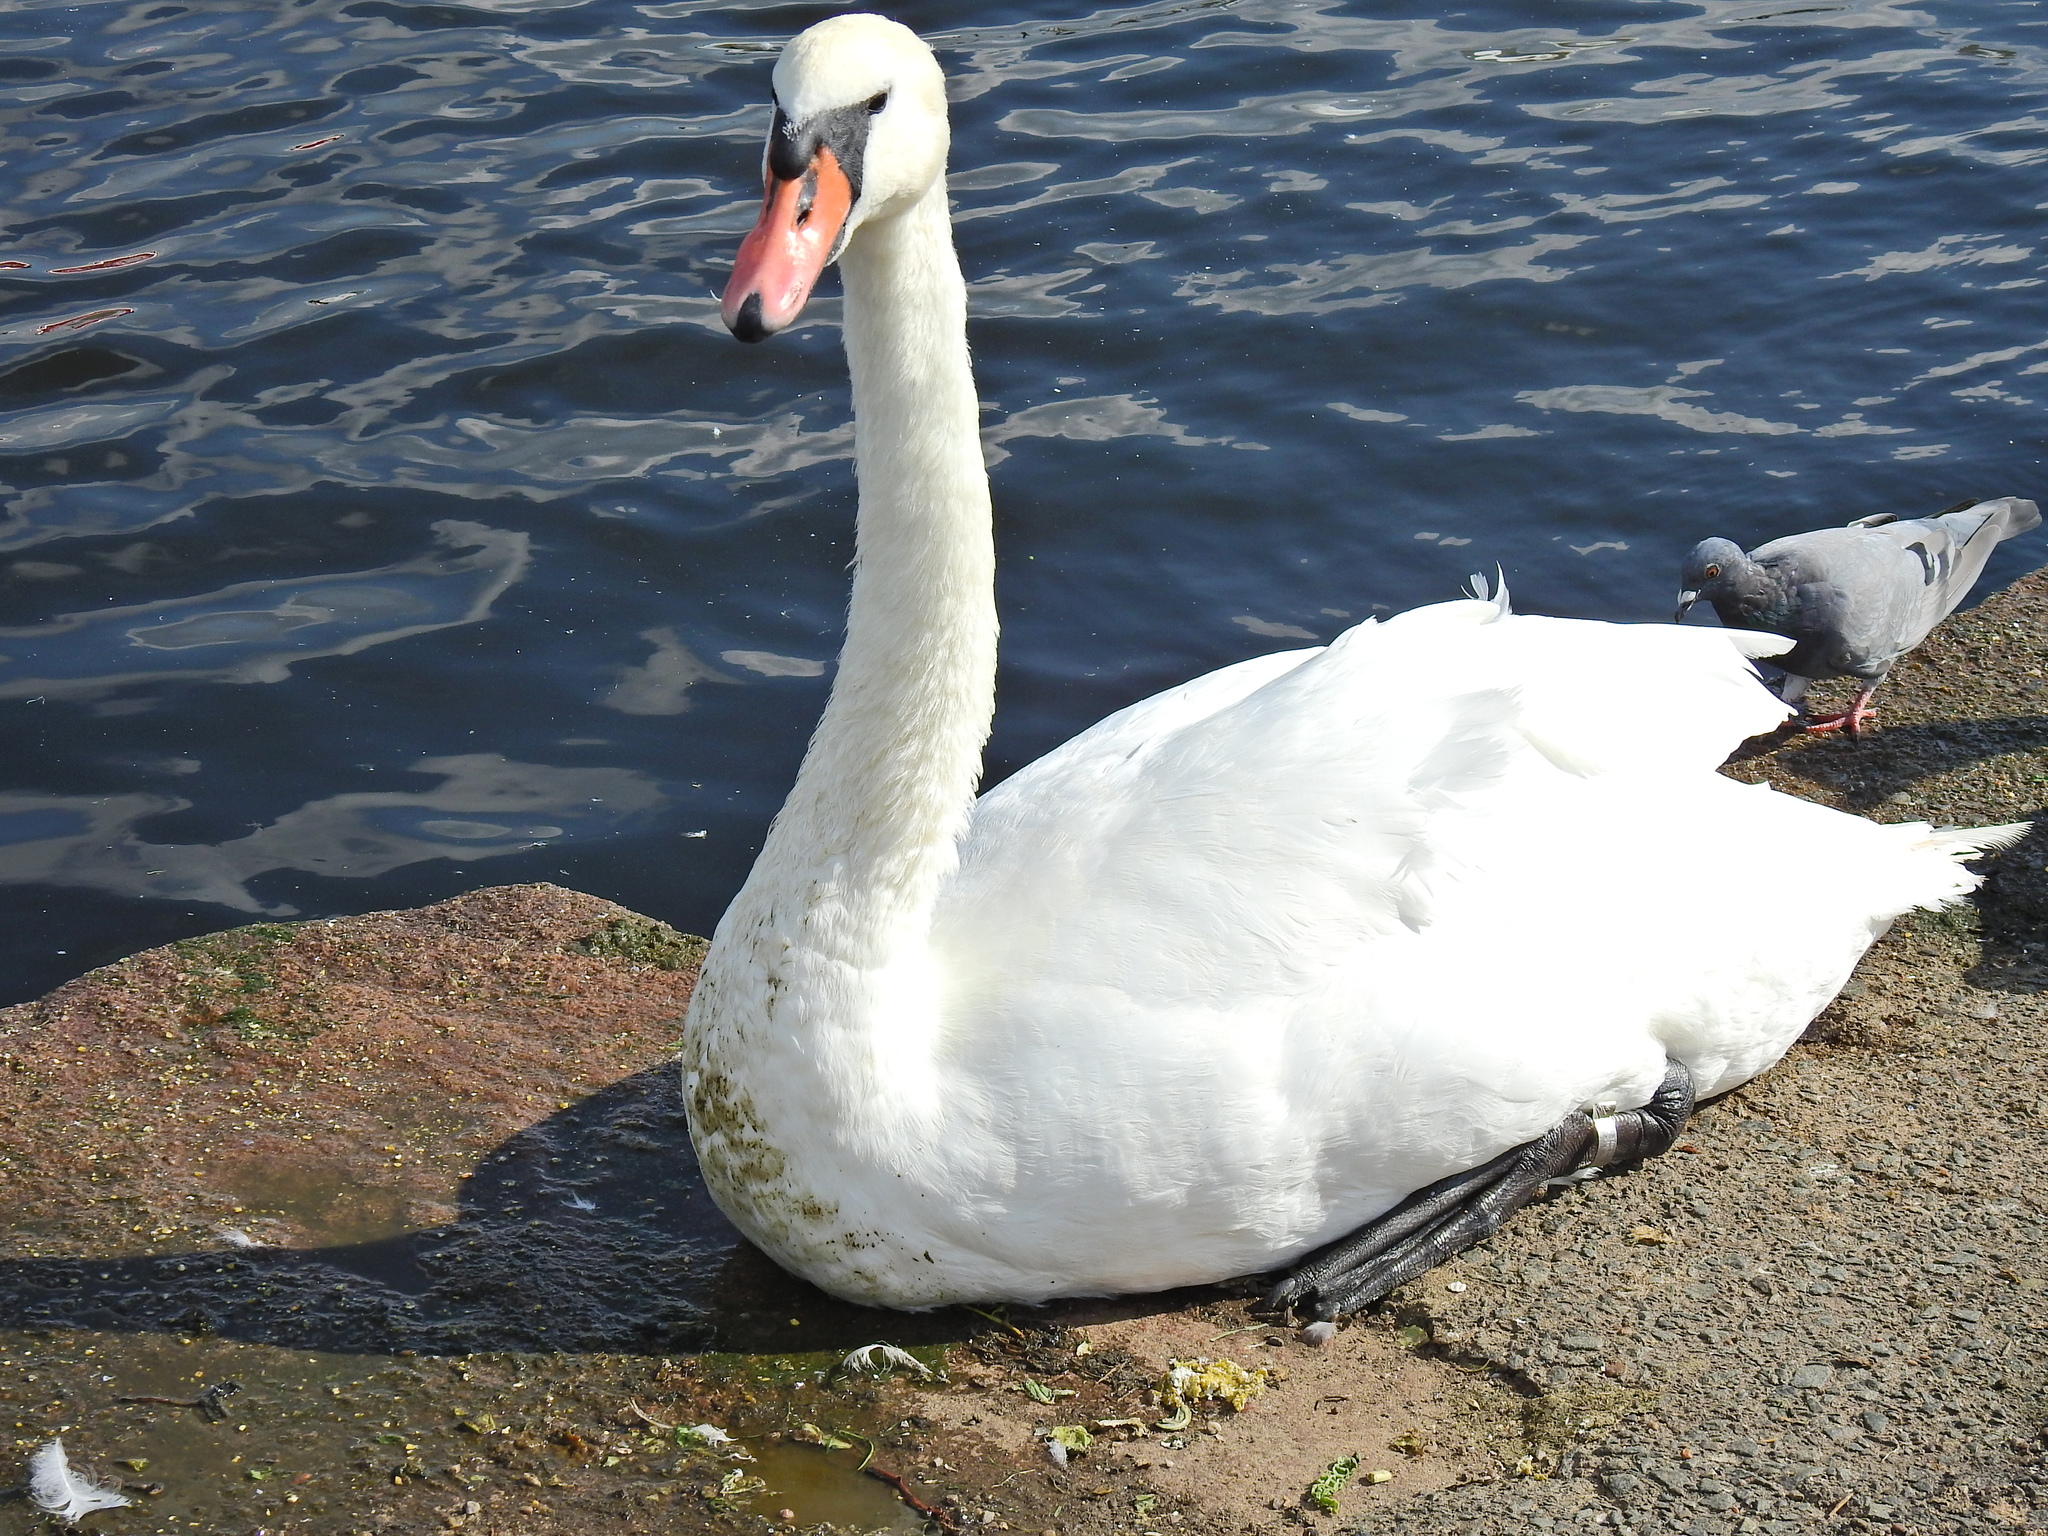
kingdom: Animalia
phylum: Chordata
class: Aves
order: Anseriformes
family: Anatidae
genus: Cygnus
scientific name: Cygnus olor
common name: Mute swan
